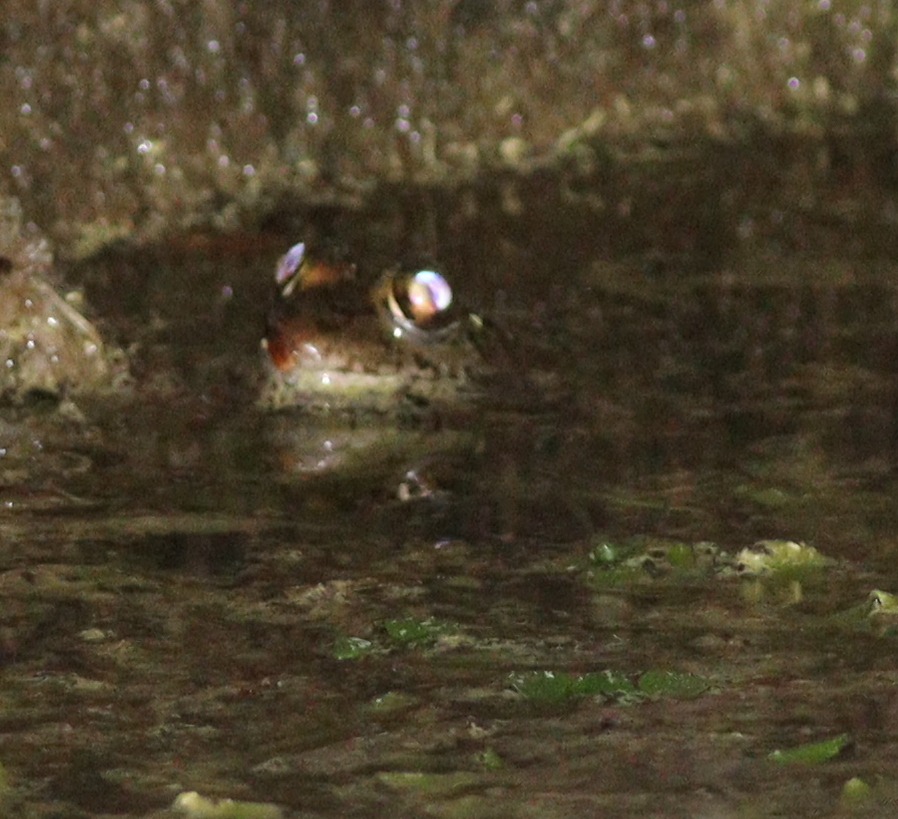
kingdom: Animalia
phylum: Chordata
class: Amphibia
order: Anura
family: Ranidae
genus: Pelophylax
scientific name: Pelophylax ridibundus
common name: Marsh frog
